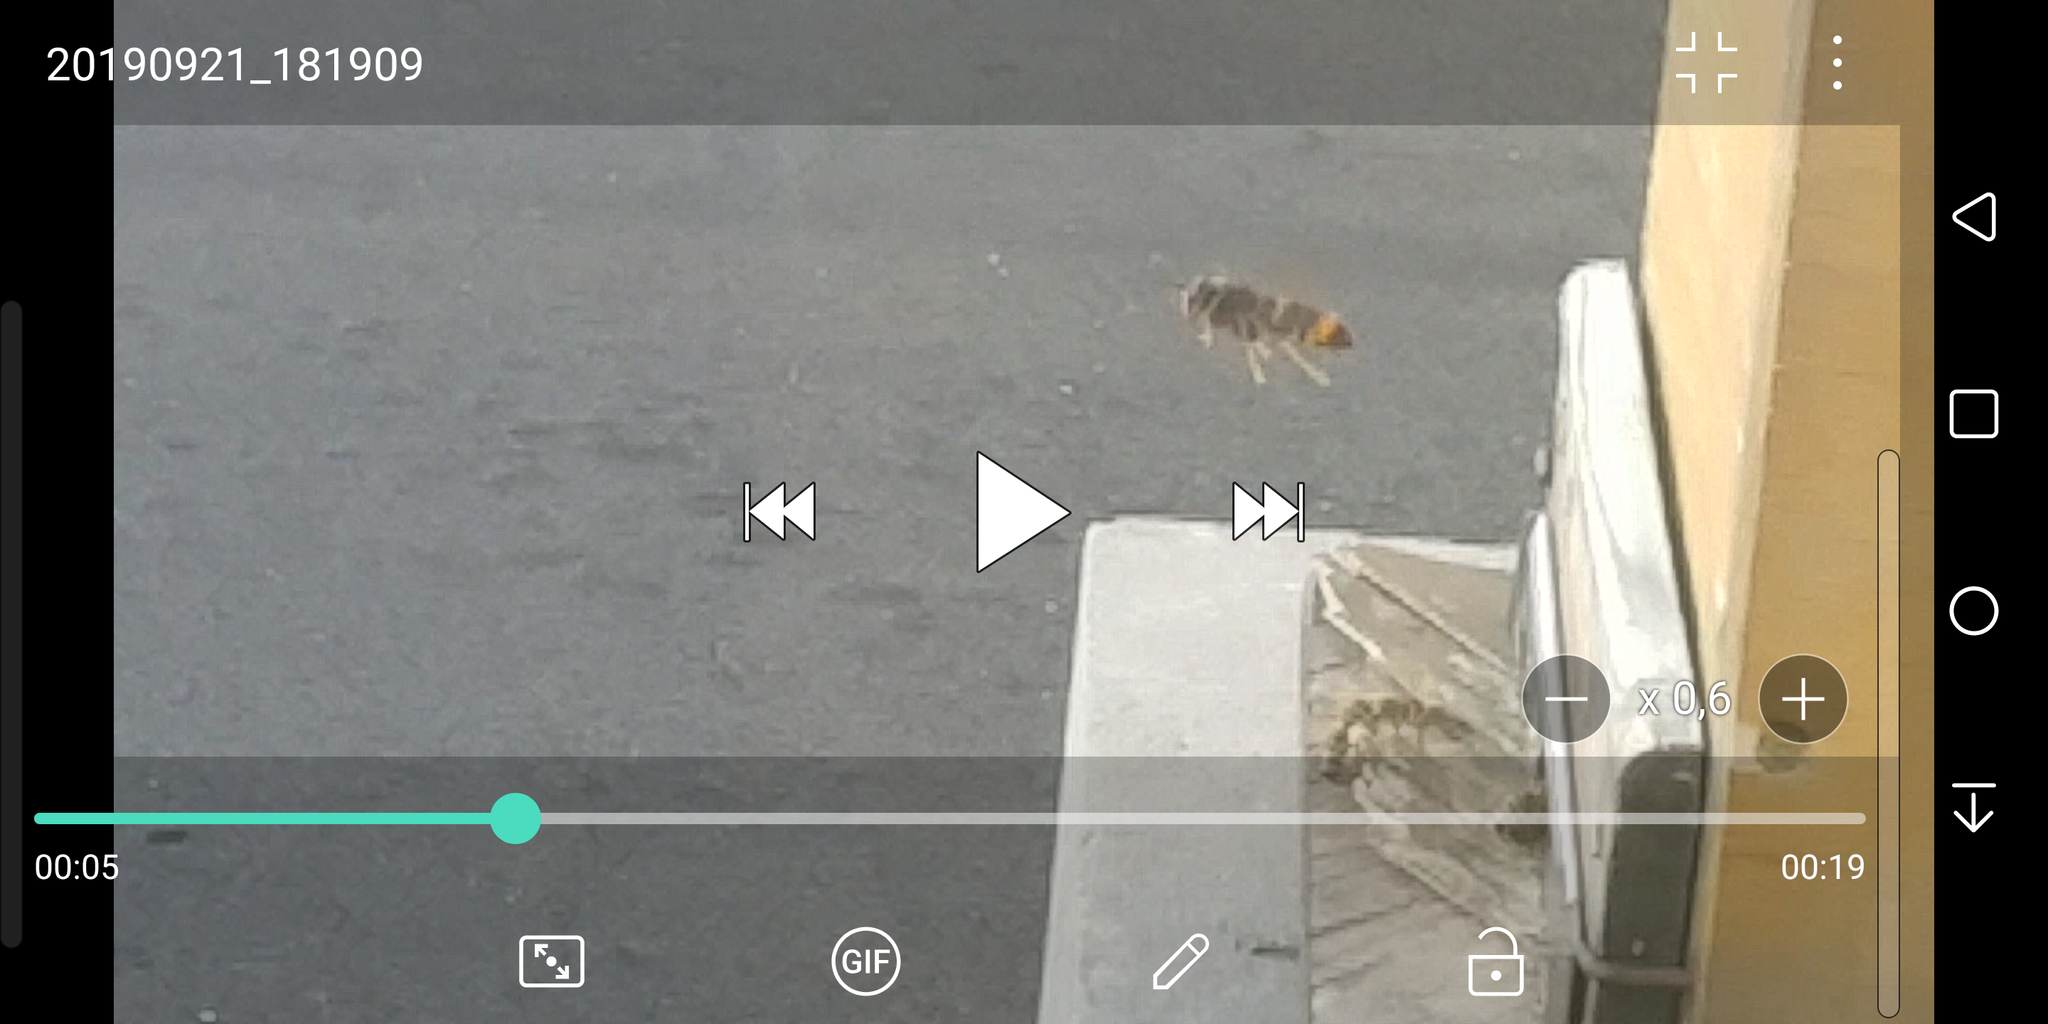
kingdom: Animalia
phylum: Arthropoda
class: Insecta
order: Hymenoptera
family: Vespidae
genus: Vespa
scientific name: Vespa velutina
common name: Asian hornet
